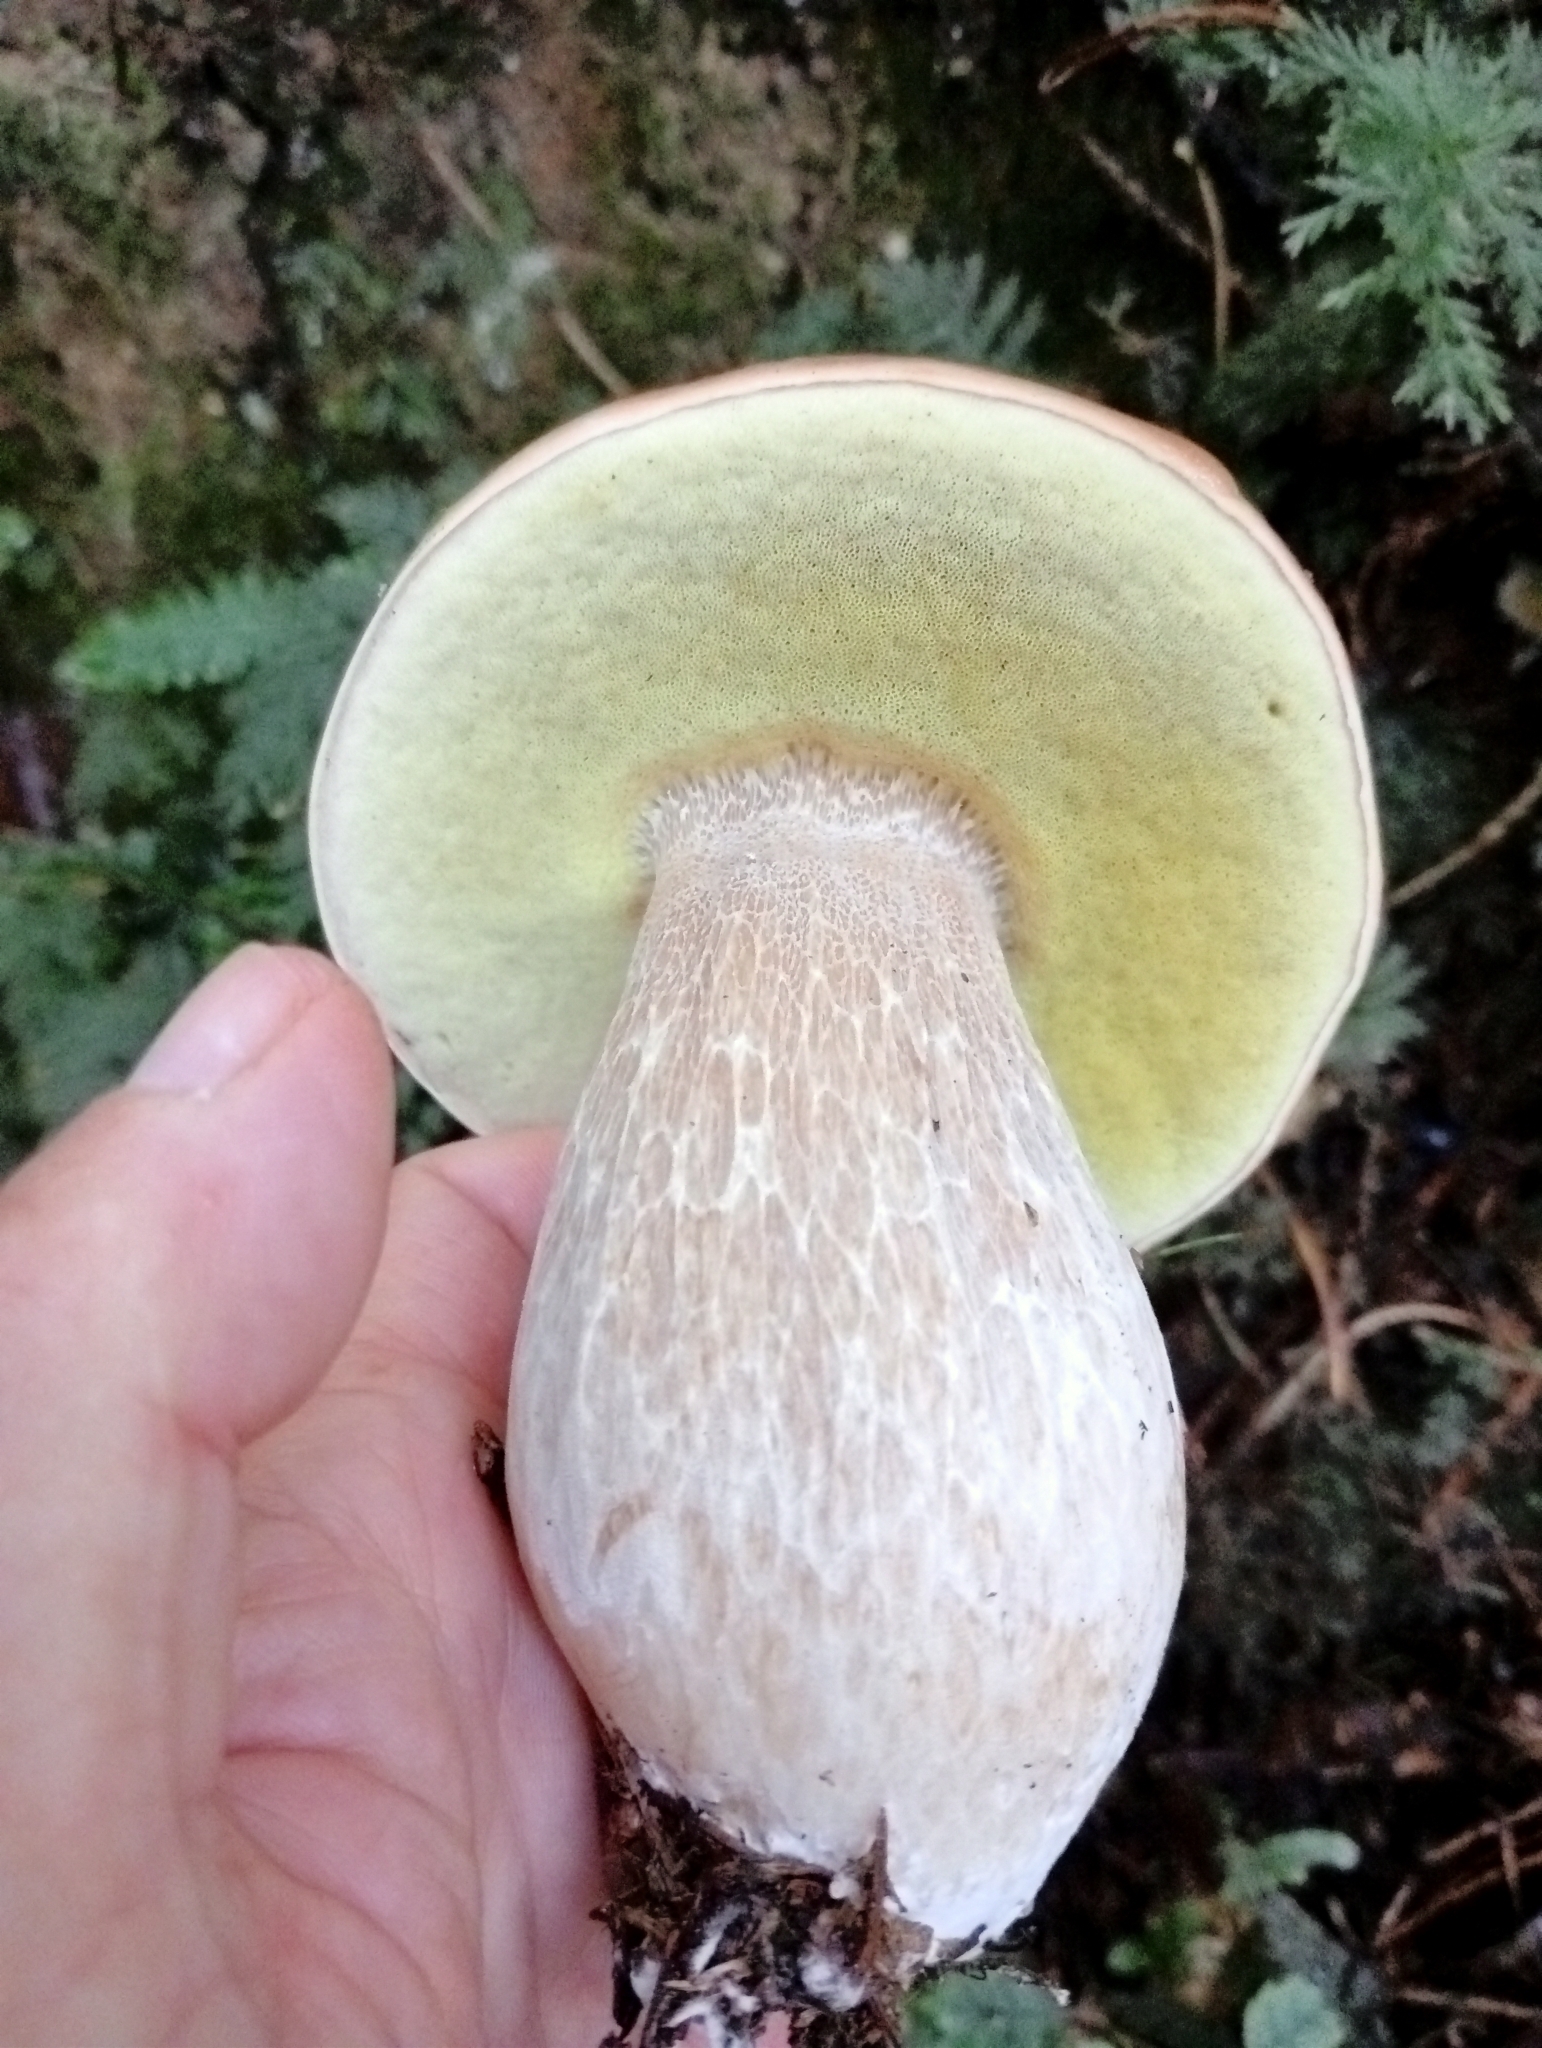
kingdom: Fungi
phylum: Basidiomycota
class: Agaricomycetes
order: Boletales
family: Boletaceae
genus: Boletus
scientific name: Boletus edulis
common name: Cep
